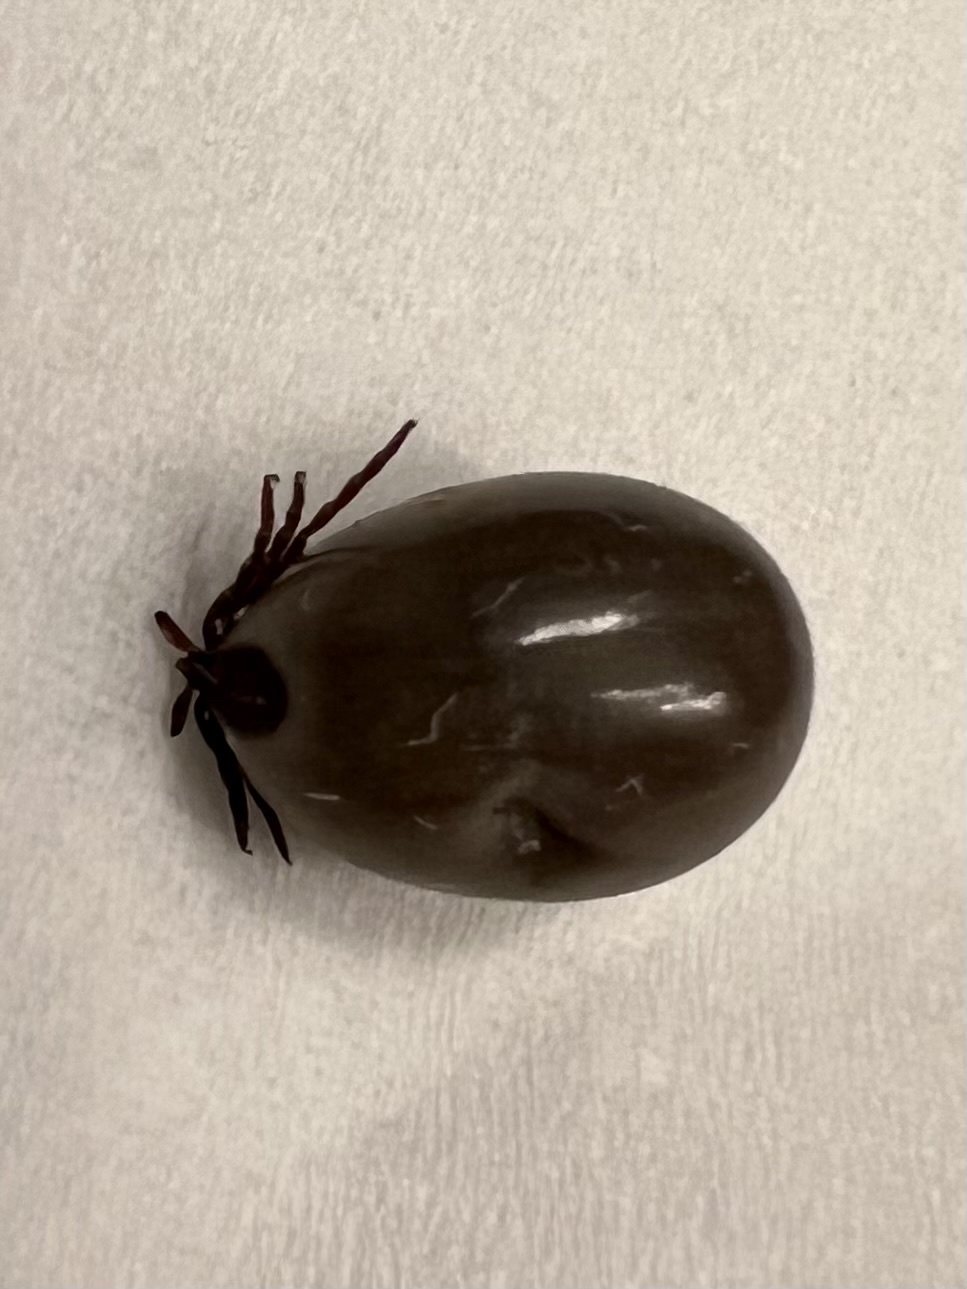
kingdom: Animalia
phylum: Arthropoda
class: Arachnida
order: Ixodida
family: Ixodidae
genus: Ixodes
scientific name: Ixodes scapularis
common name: Black legged tick
